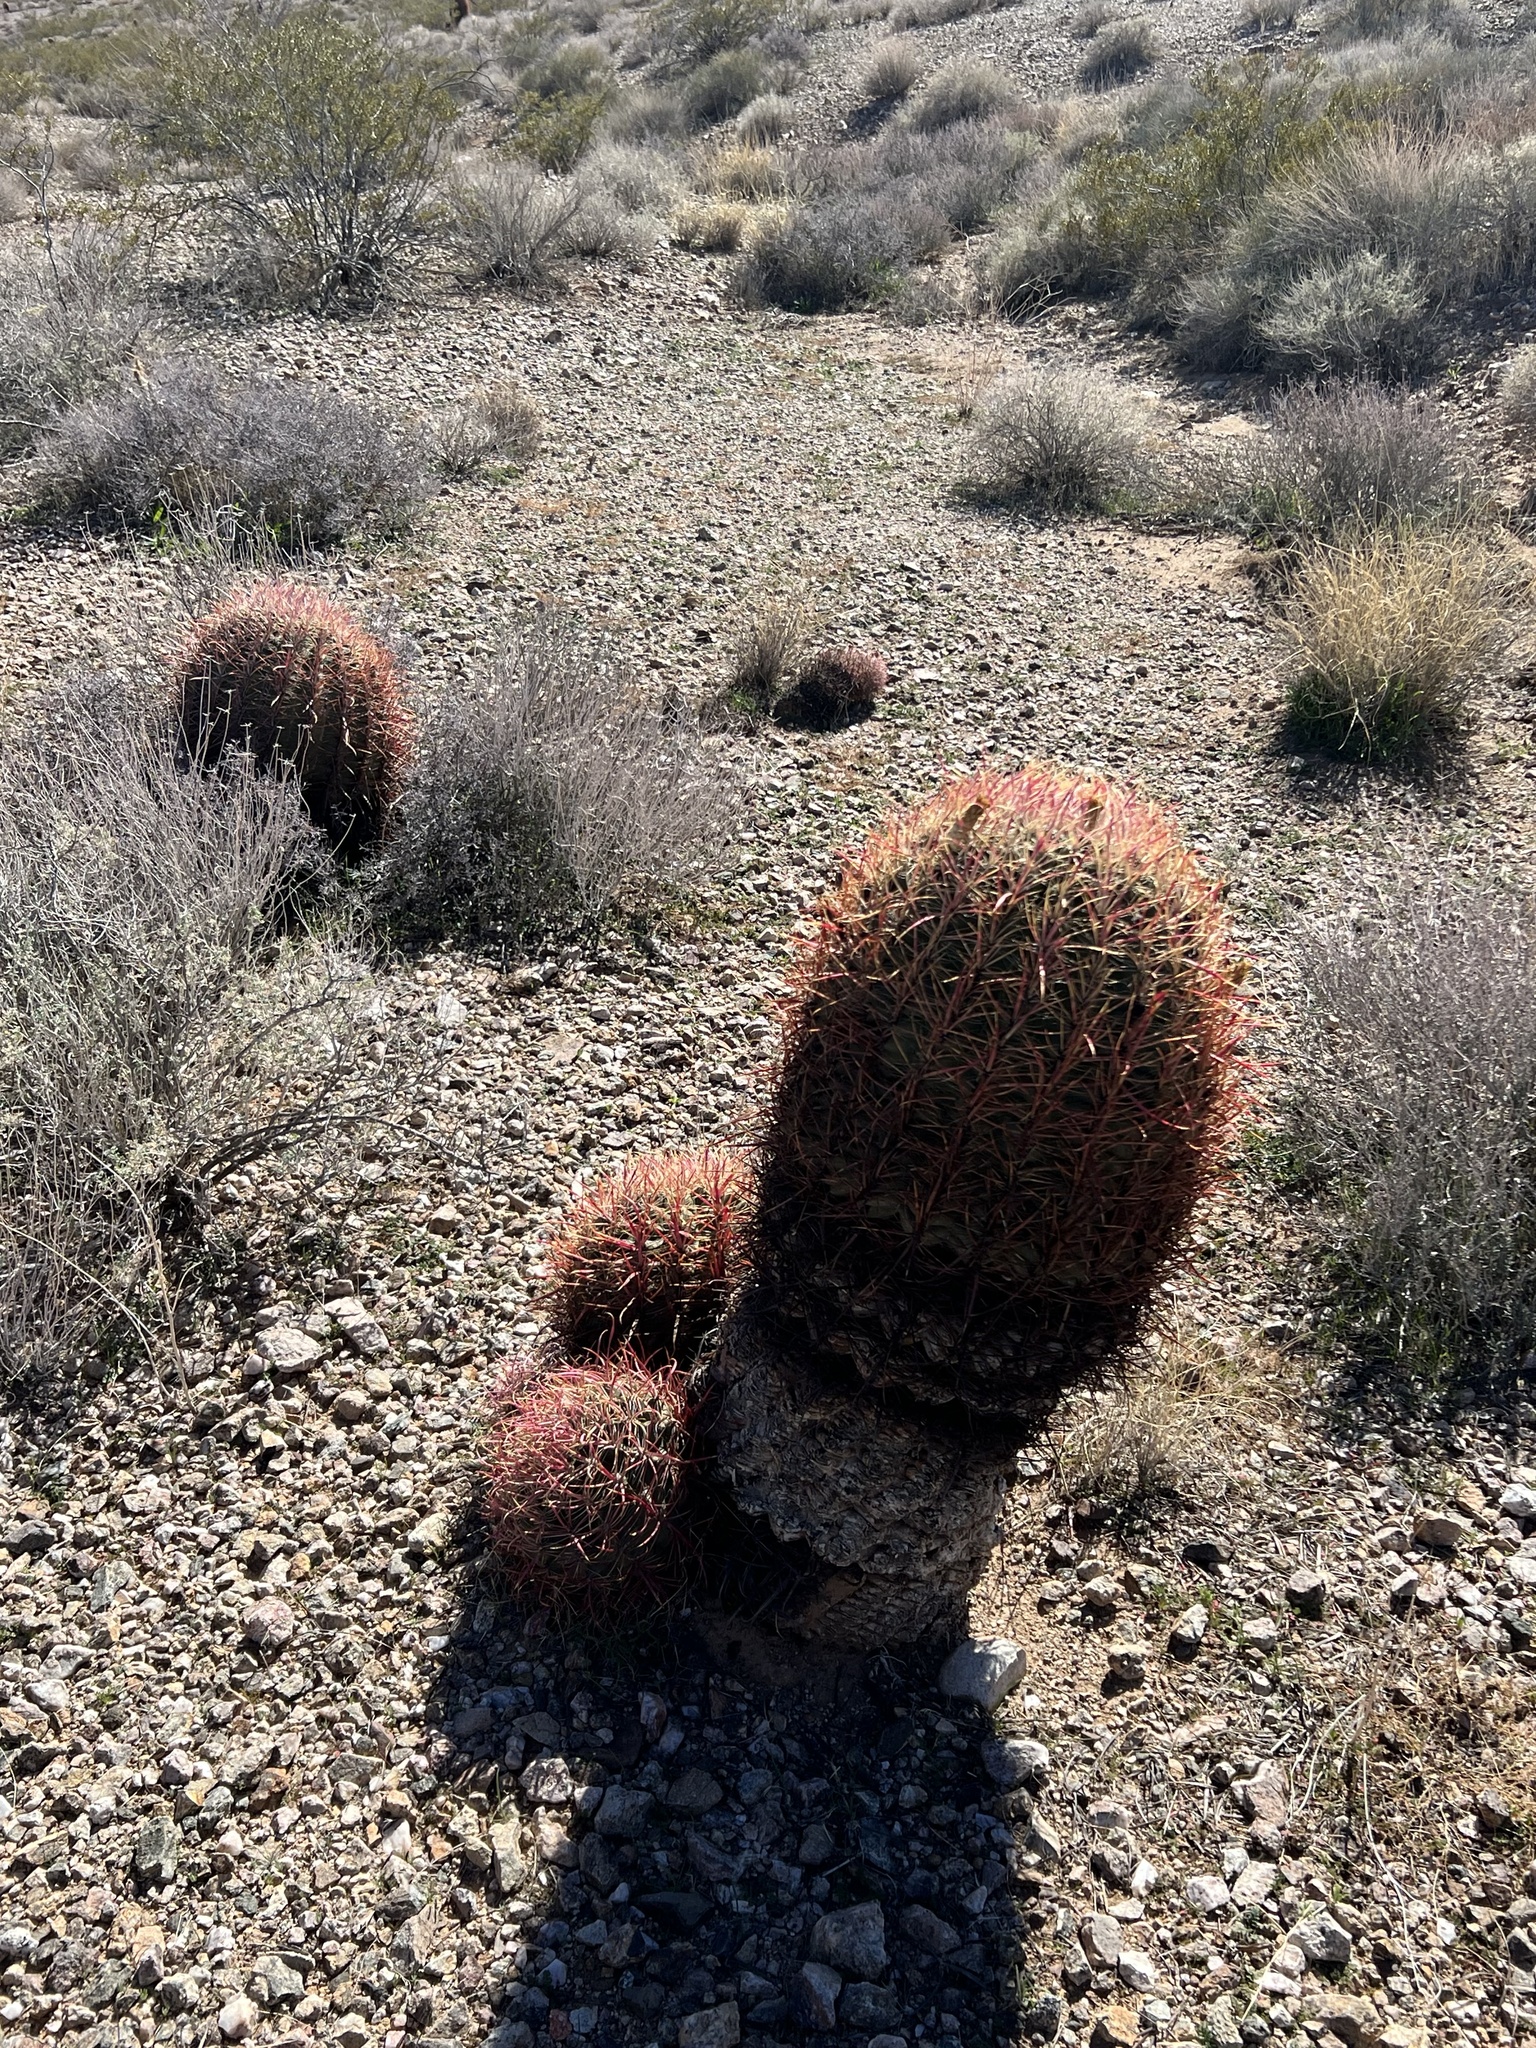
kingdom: Plantae
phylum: Tracheophyta
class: Magnoliopsida
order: Caryophyllales
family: Cactaceae
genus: Ferocactus
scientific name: Ferocactus cylindraceus
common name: California barrel cactus
